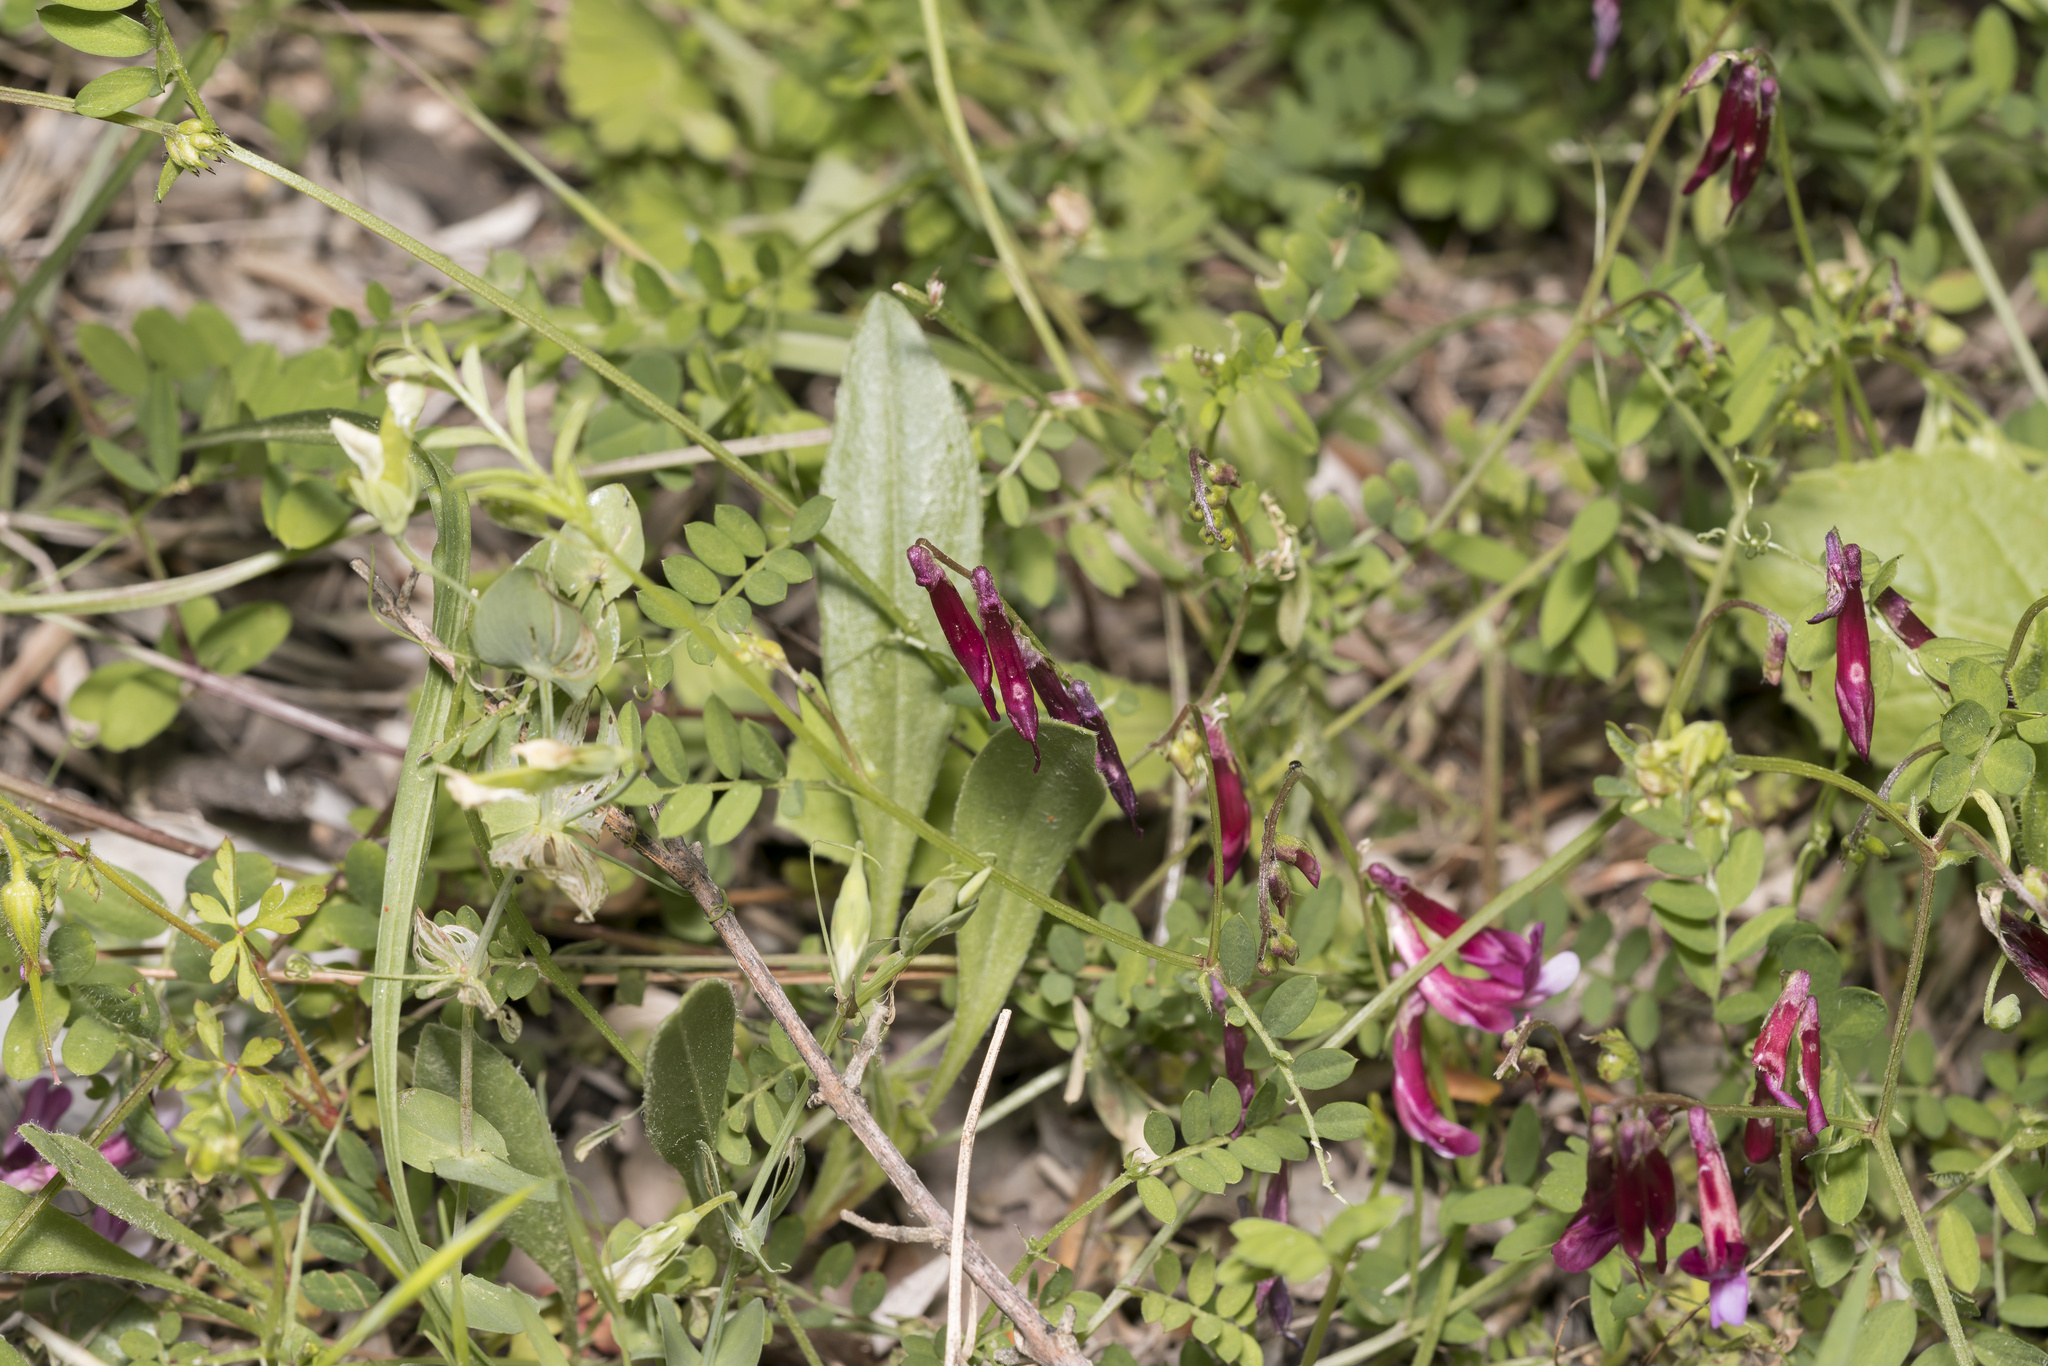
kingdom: Plantae
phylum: Tracheophyta
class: Magnoliopsida
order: Fabales
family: Fabaceae
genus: Vicia
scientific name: Vicia eriocarpa
